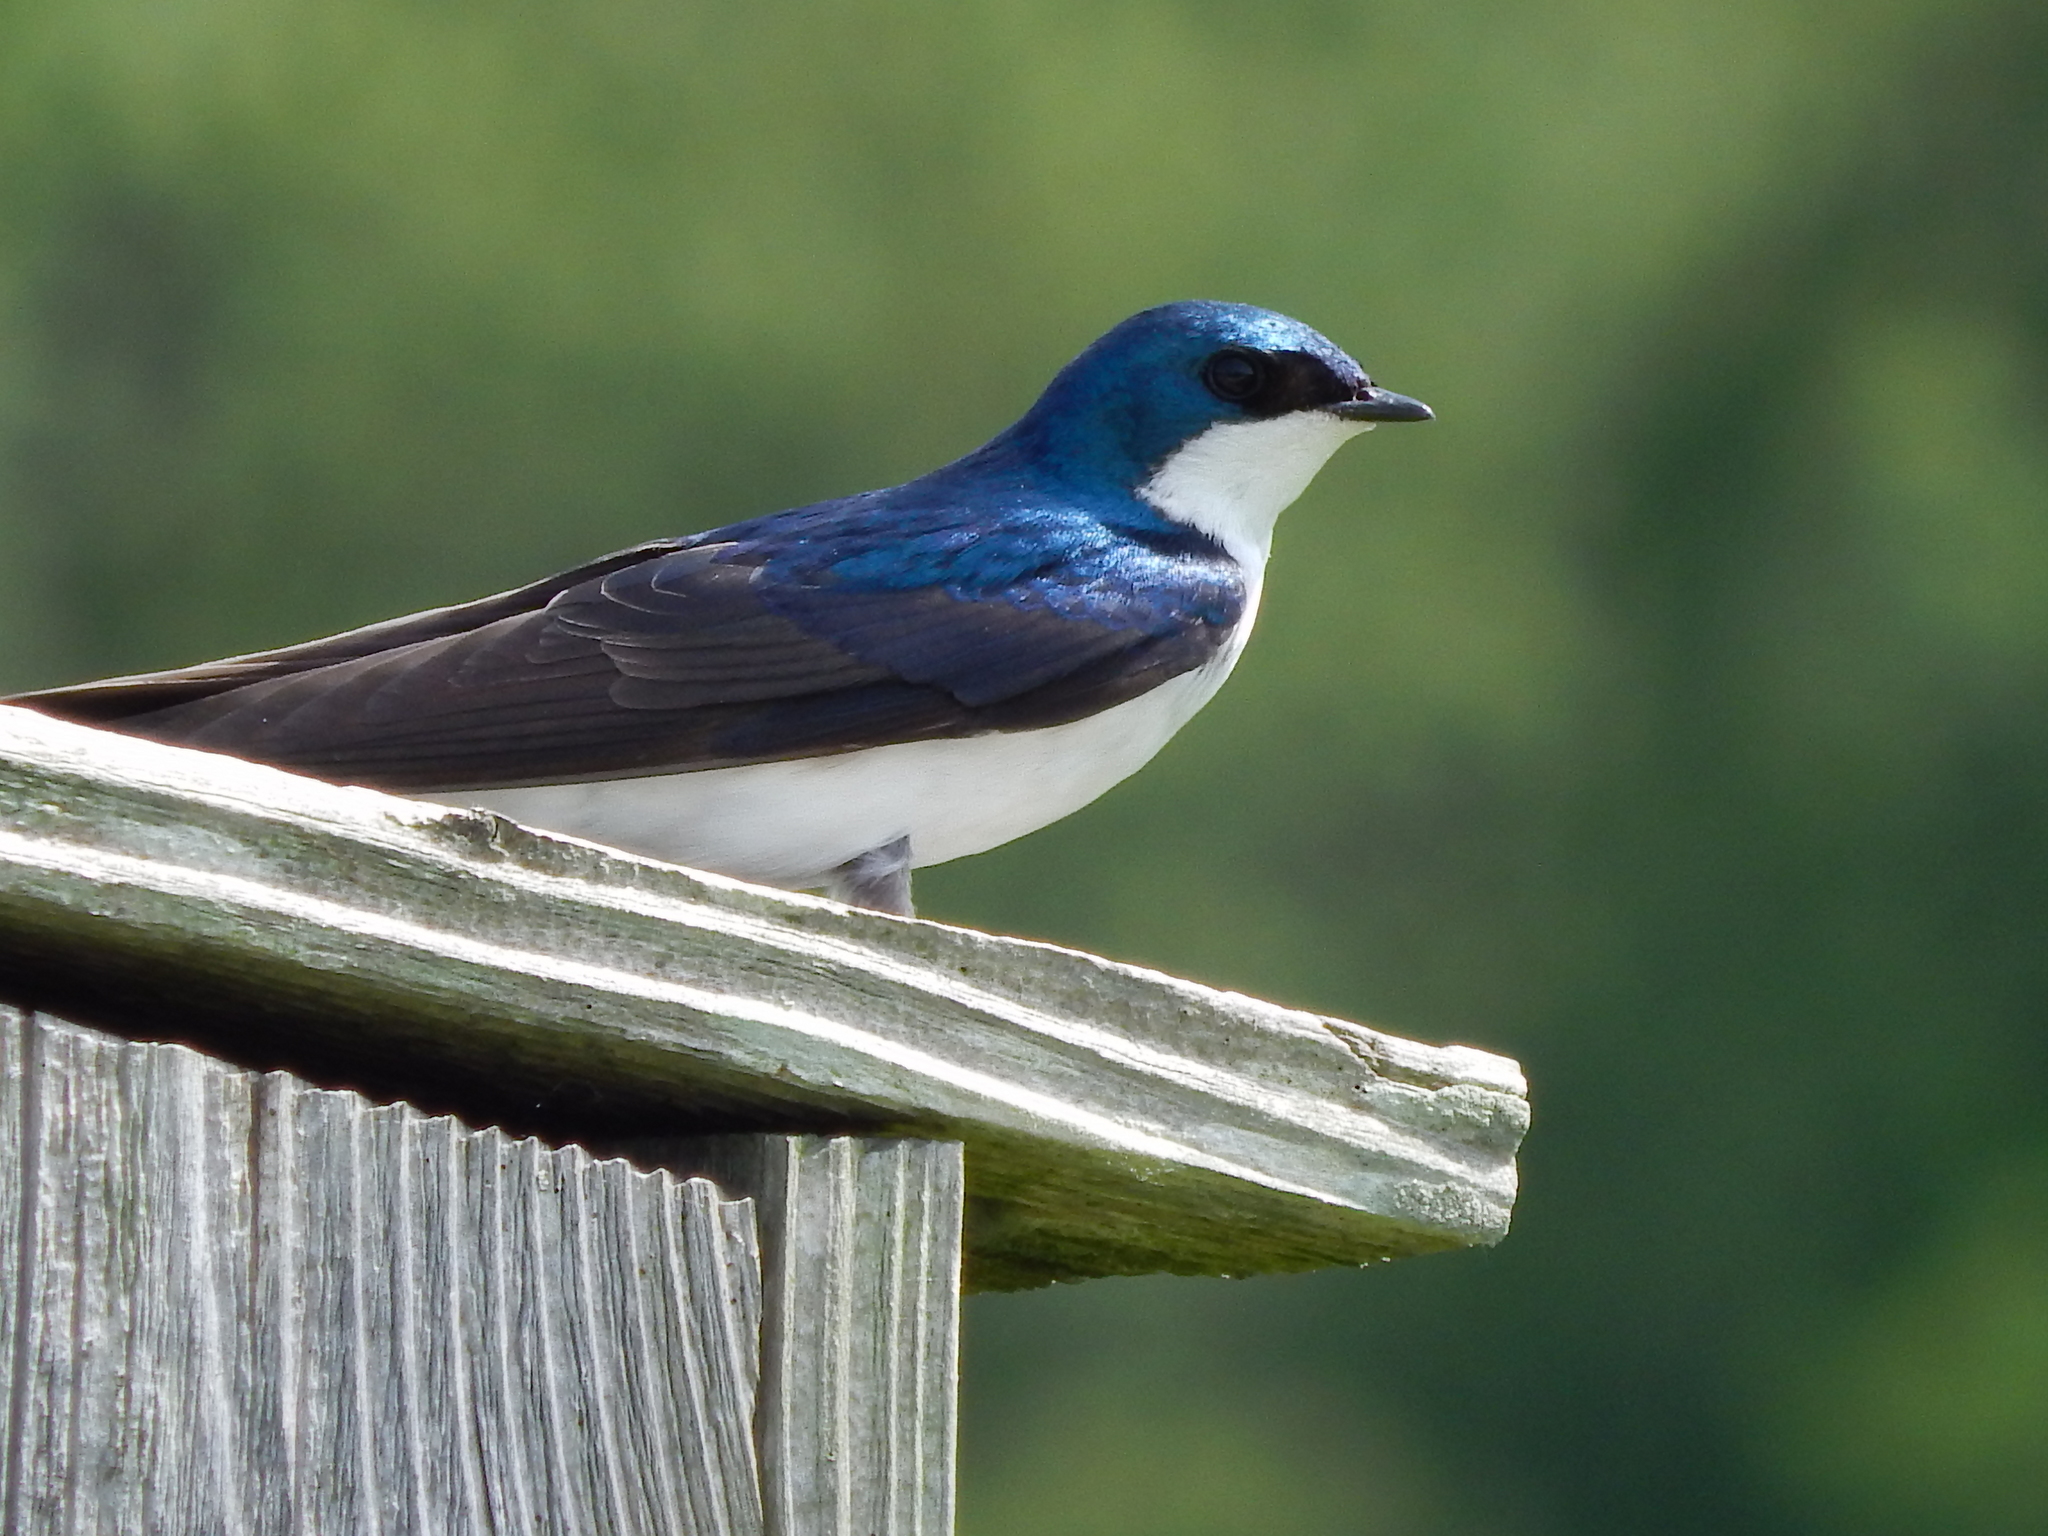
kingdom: Animalia
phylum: Chordata
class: Aves
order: Passeriformes
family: Hirundinidae
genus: Tachycineta
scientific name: Tachycineta bicolor
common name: Tree swallow
